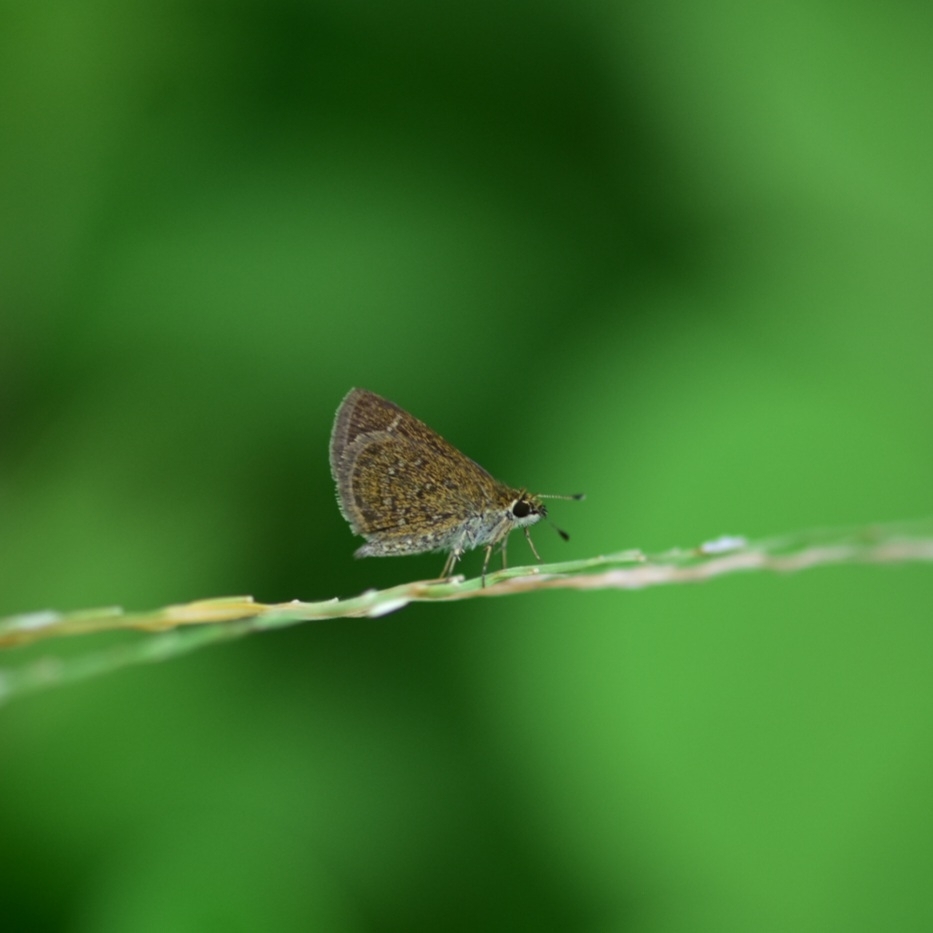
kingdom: Animalia
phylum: Arthropoda
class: Insecta
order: Lepidoptera
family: Hesperiidae
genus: Aeromachus
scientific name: Aeromachus pygmaeus
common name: Pygmy scrub hopper
